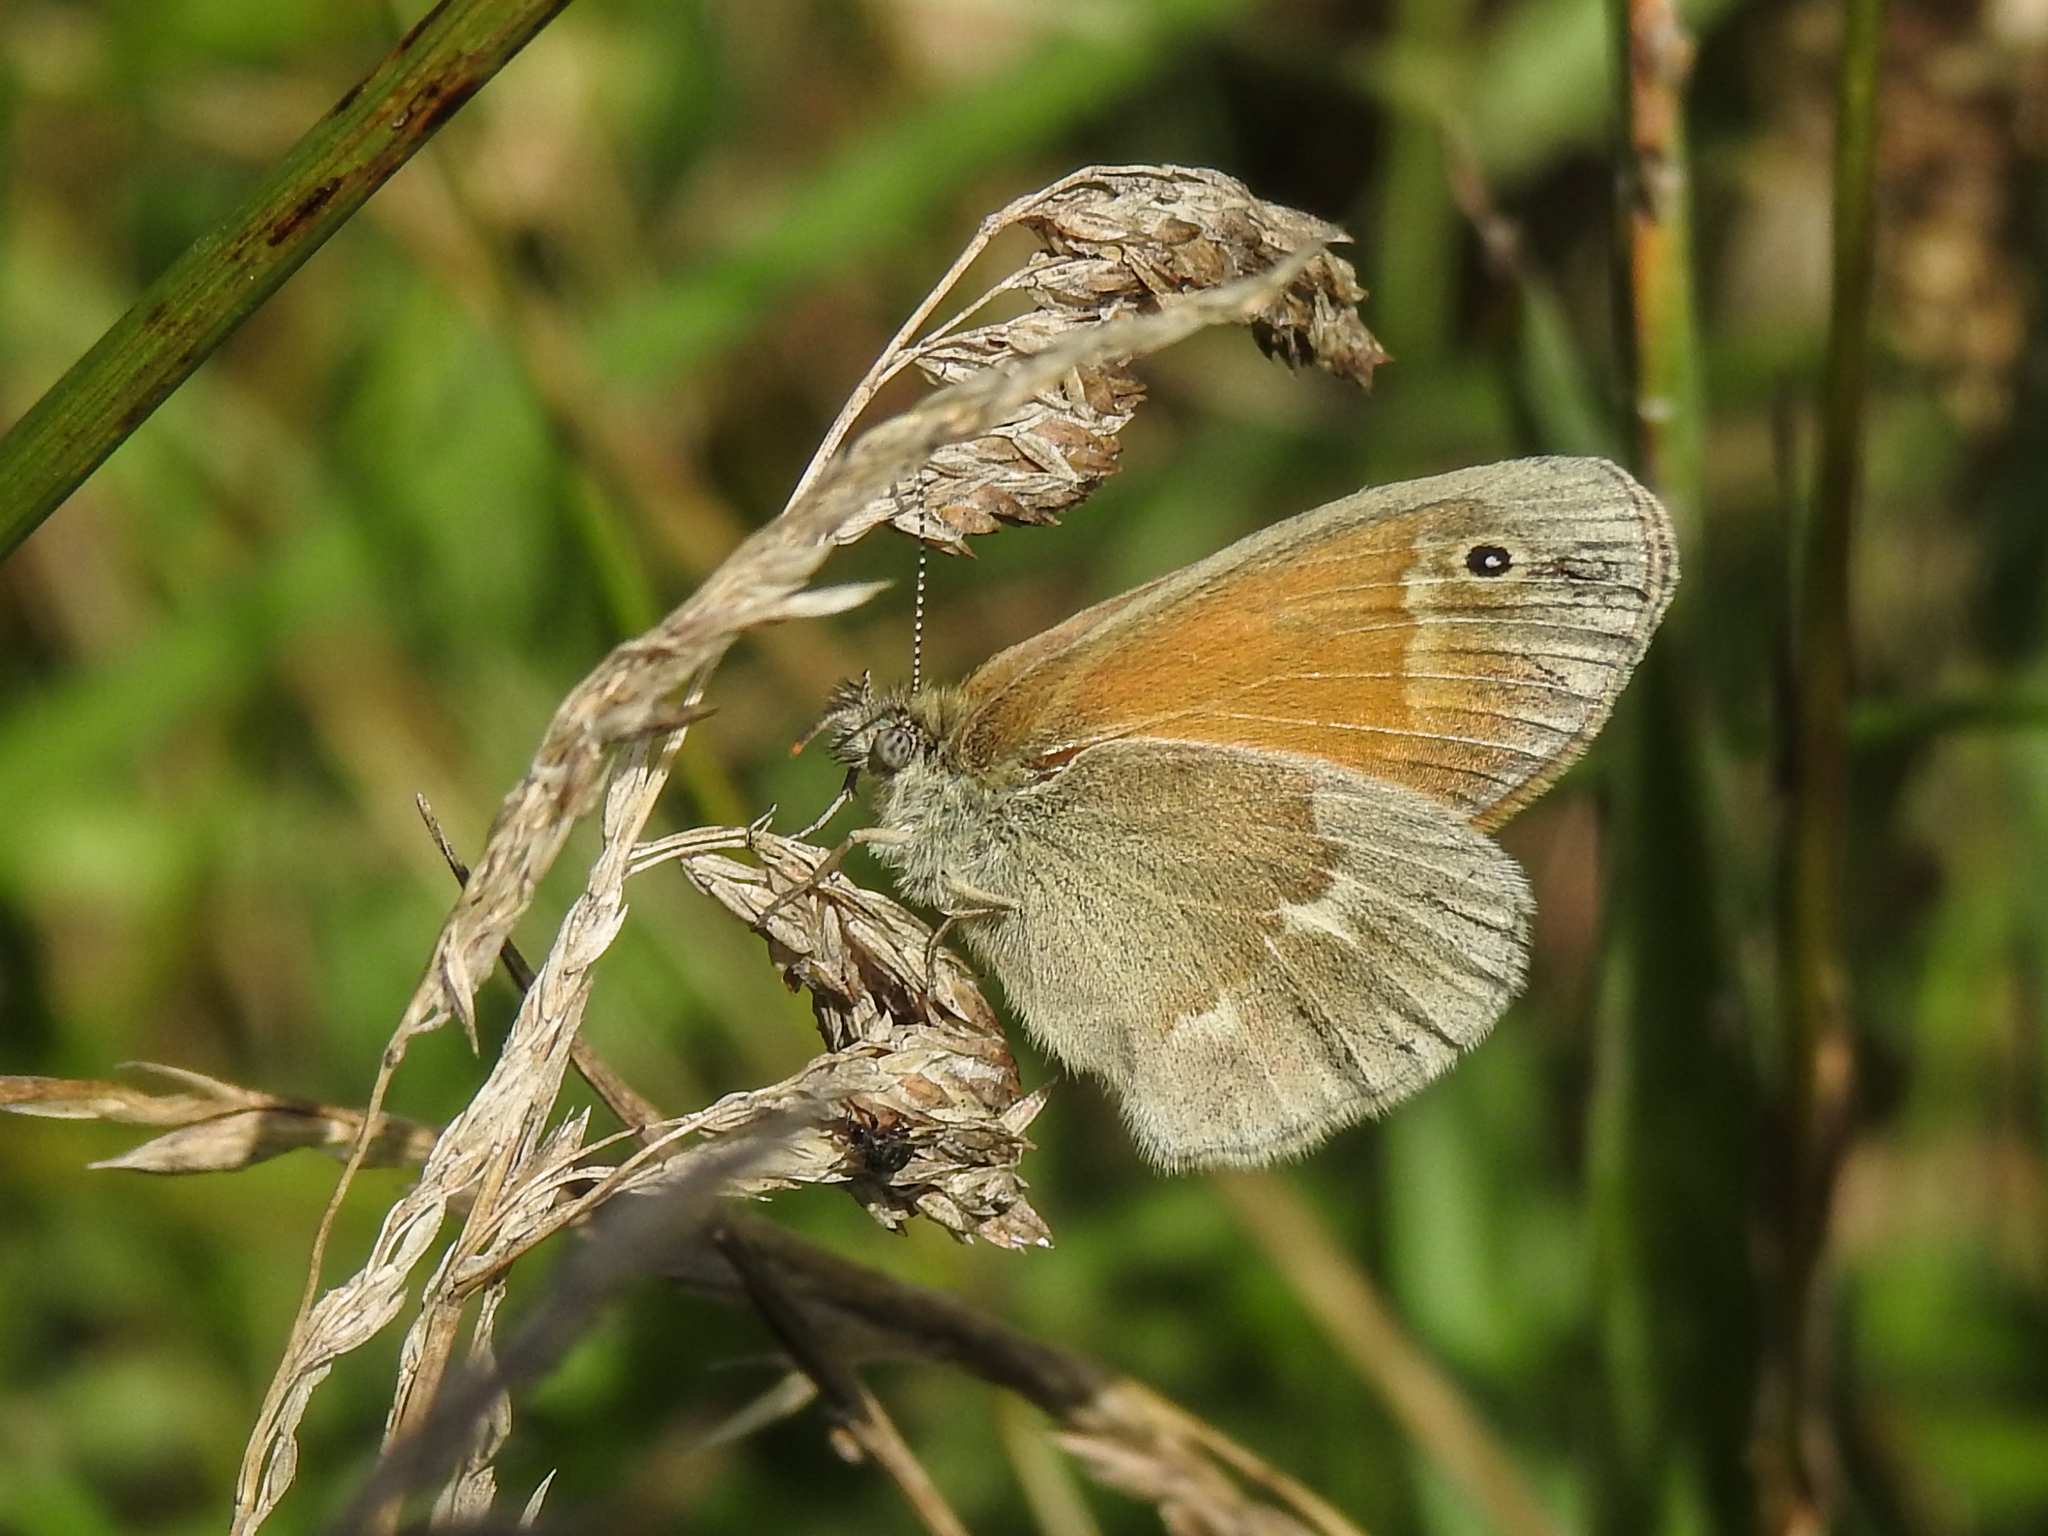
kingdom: Animalia
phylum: Arthropoda
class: Insecta
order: Lepidoptera
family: Nymphalidae
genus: Coenonympha
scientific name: Coenonympha california
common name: Common ringlet
